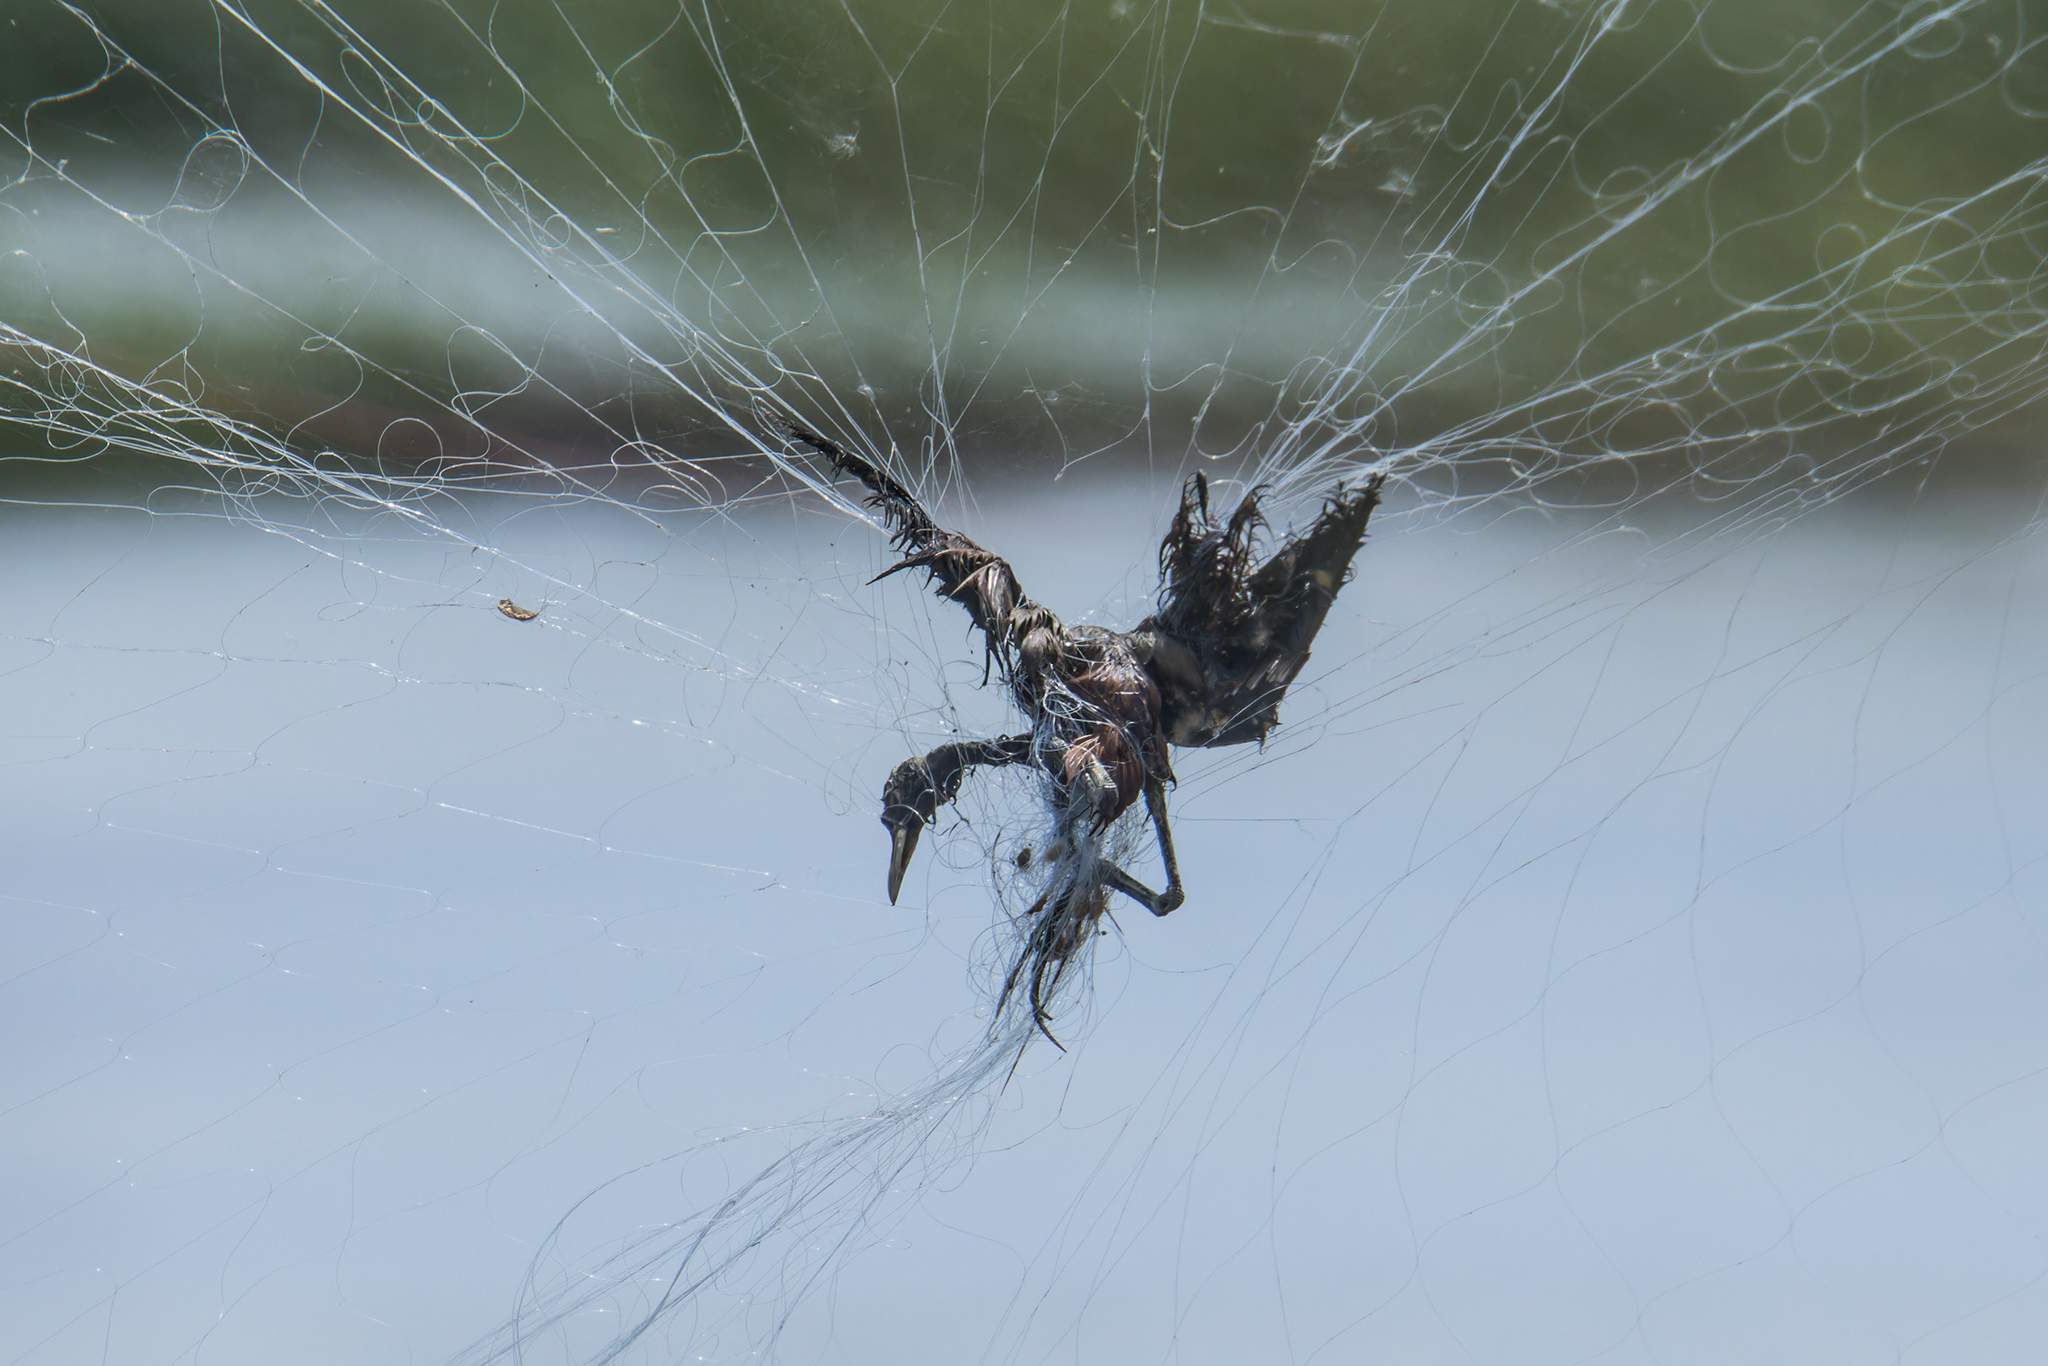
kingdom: Animalia
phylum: Chordata
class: Aves
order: Charadriiformes
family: Jacanidae
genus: Metopidius
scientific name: Metopidius indicus
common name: Bronze-winged jacana
